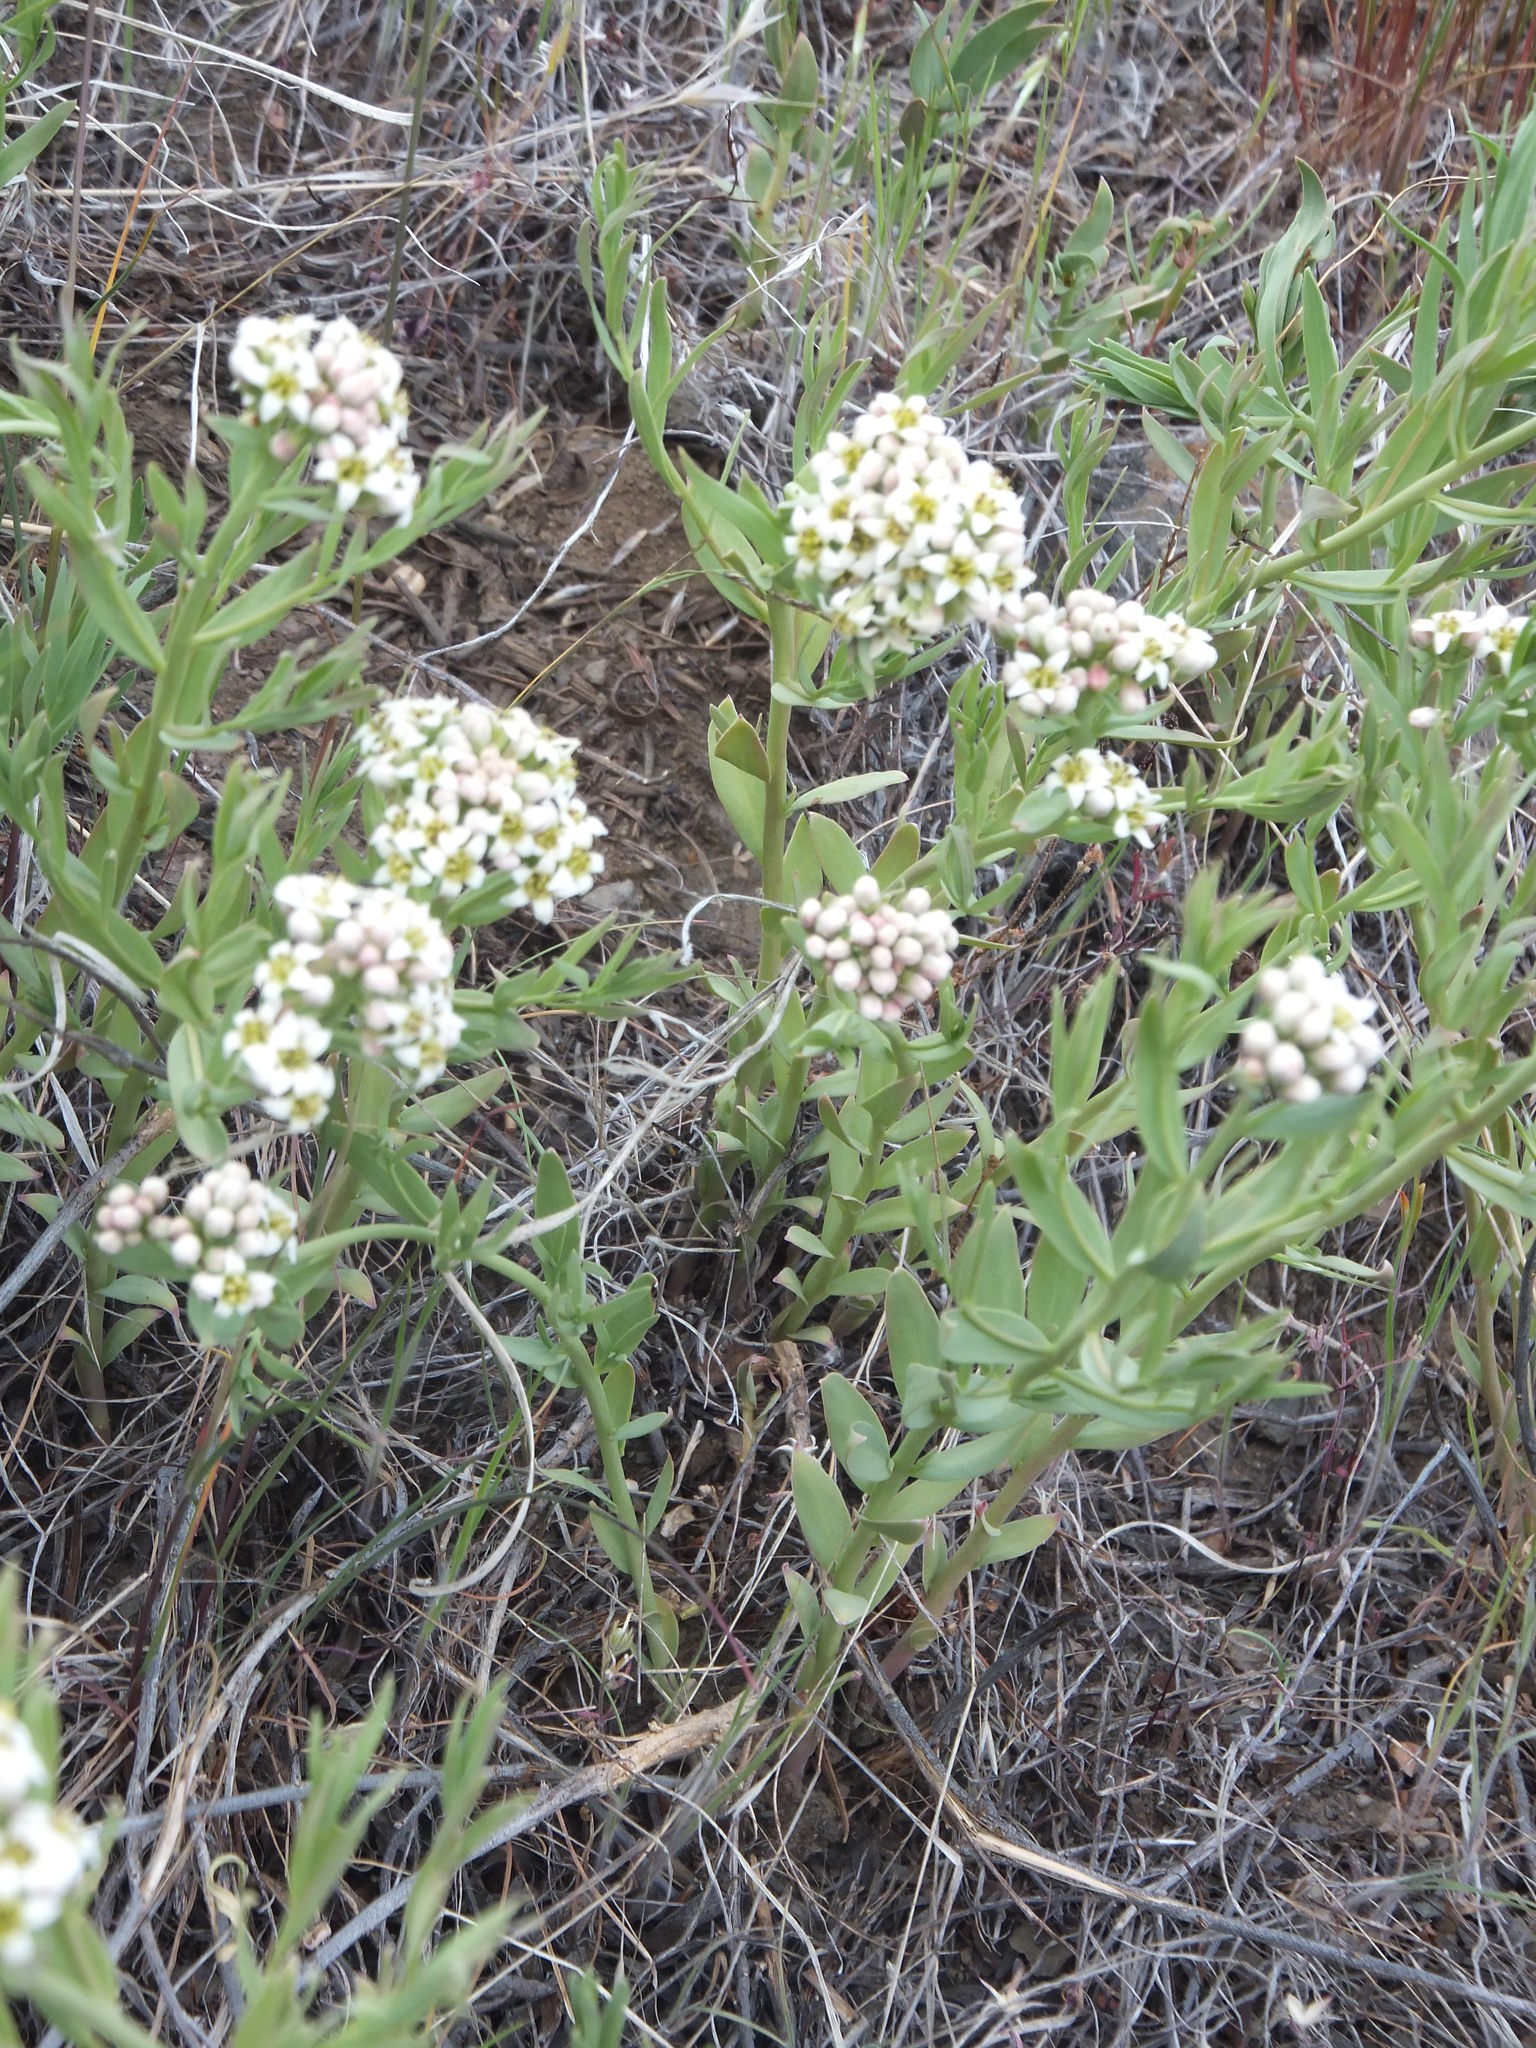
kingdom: Plantae
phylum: Tracheophyta
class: Magnoliopsida
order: Santalales
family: Comandraceae
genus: Comandra
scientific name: Comandra umbellata
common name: Bastard toadflax
